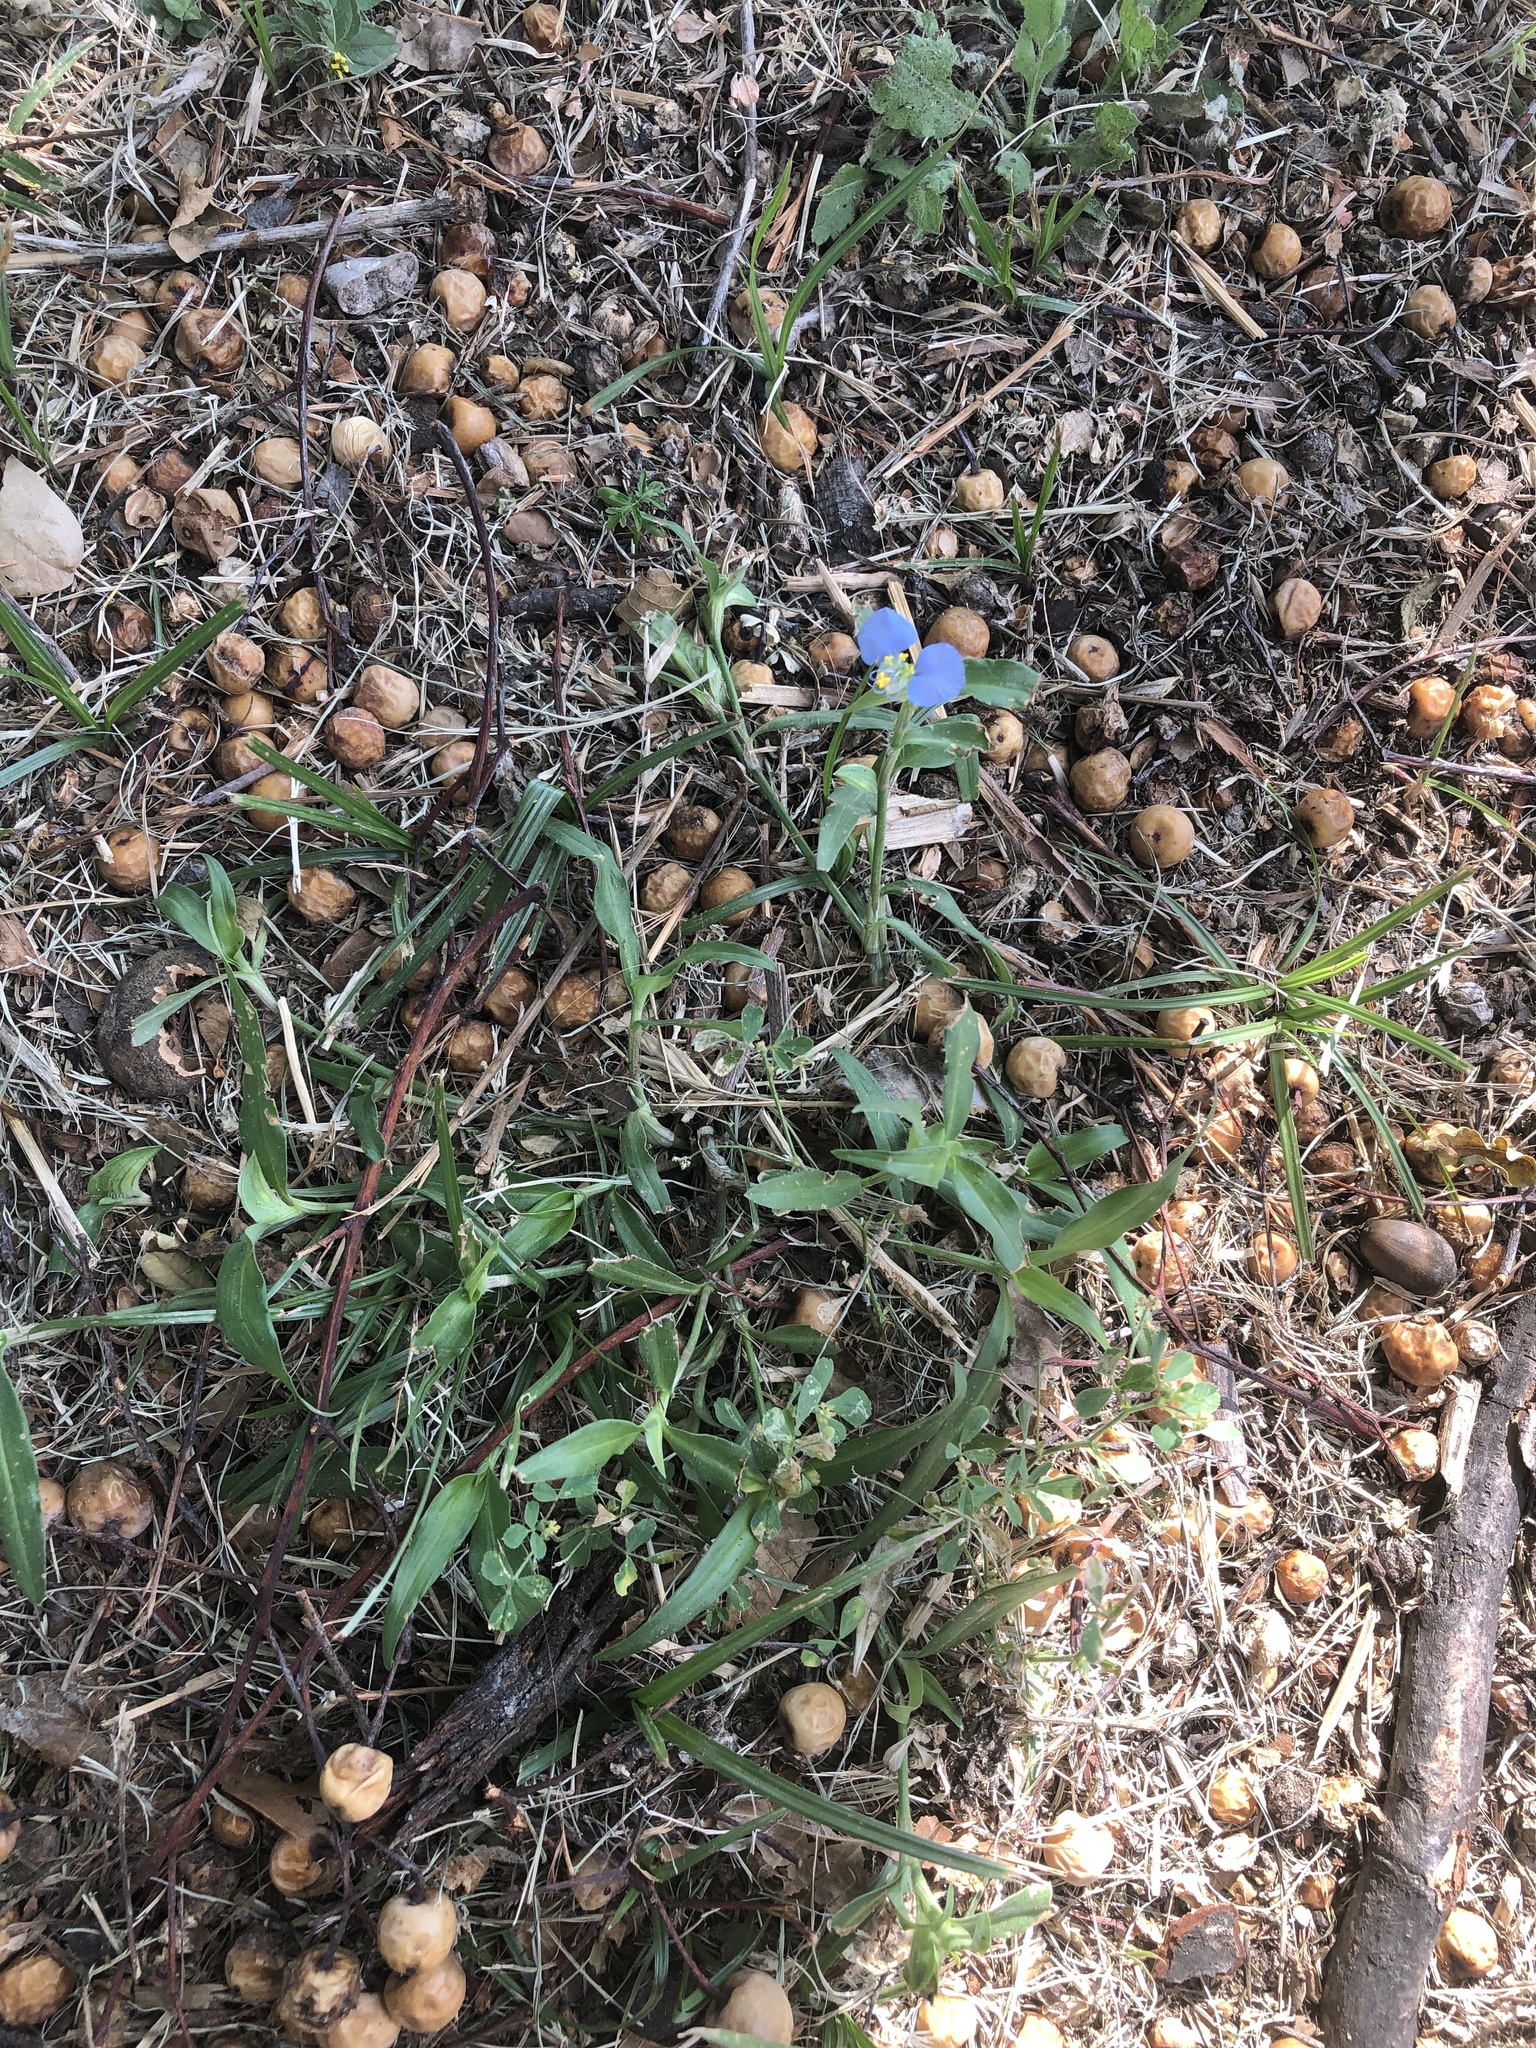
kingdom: Plantae
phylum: Tracheophyta
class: Liliopsida
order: Commelinales
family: Commelinaceae
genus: Commelina
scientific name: Commelina erecta
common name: Blousel blommetjie
